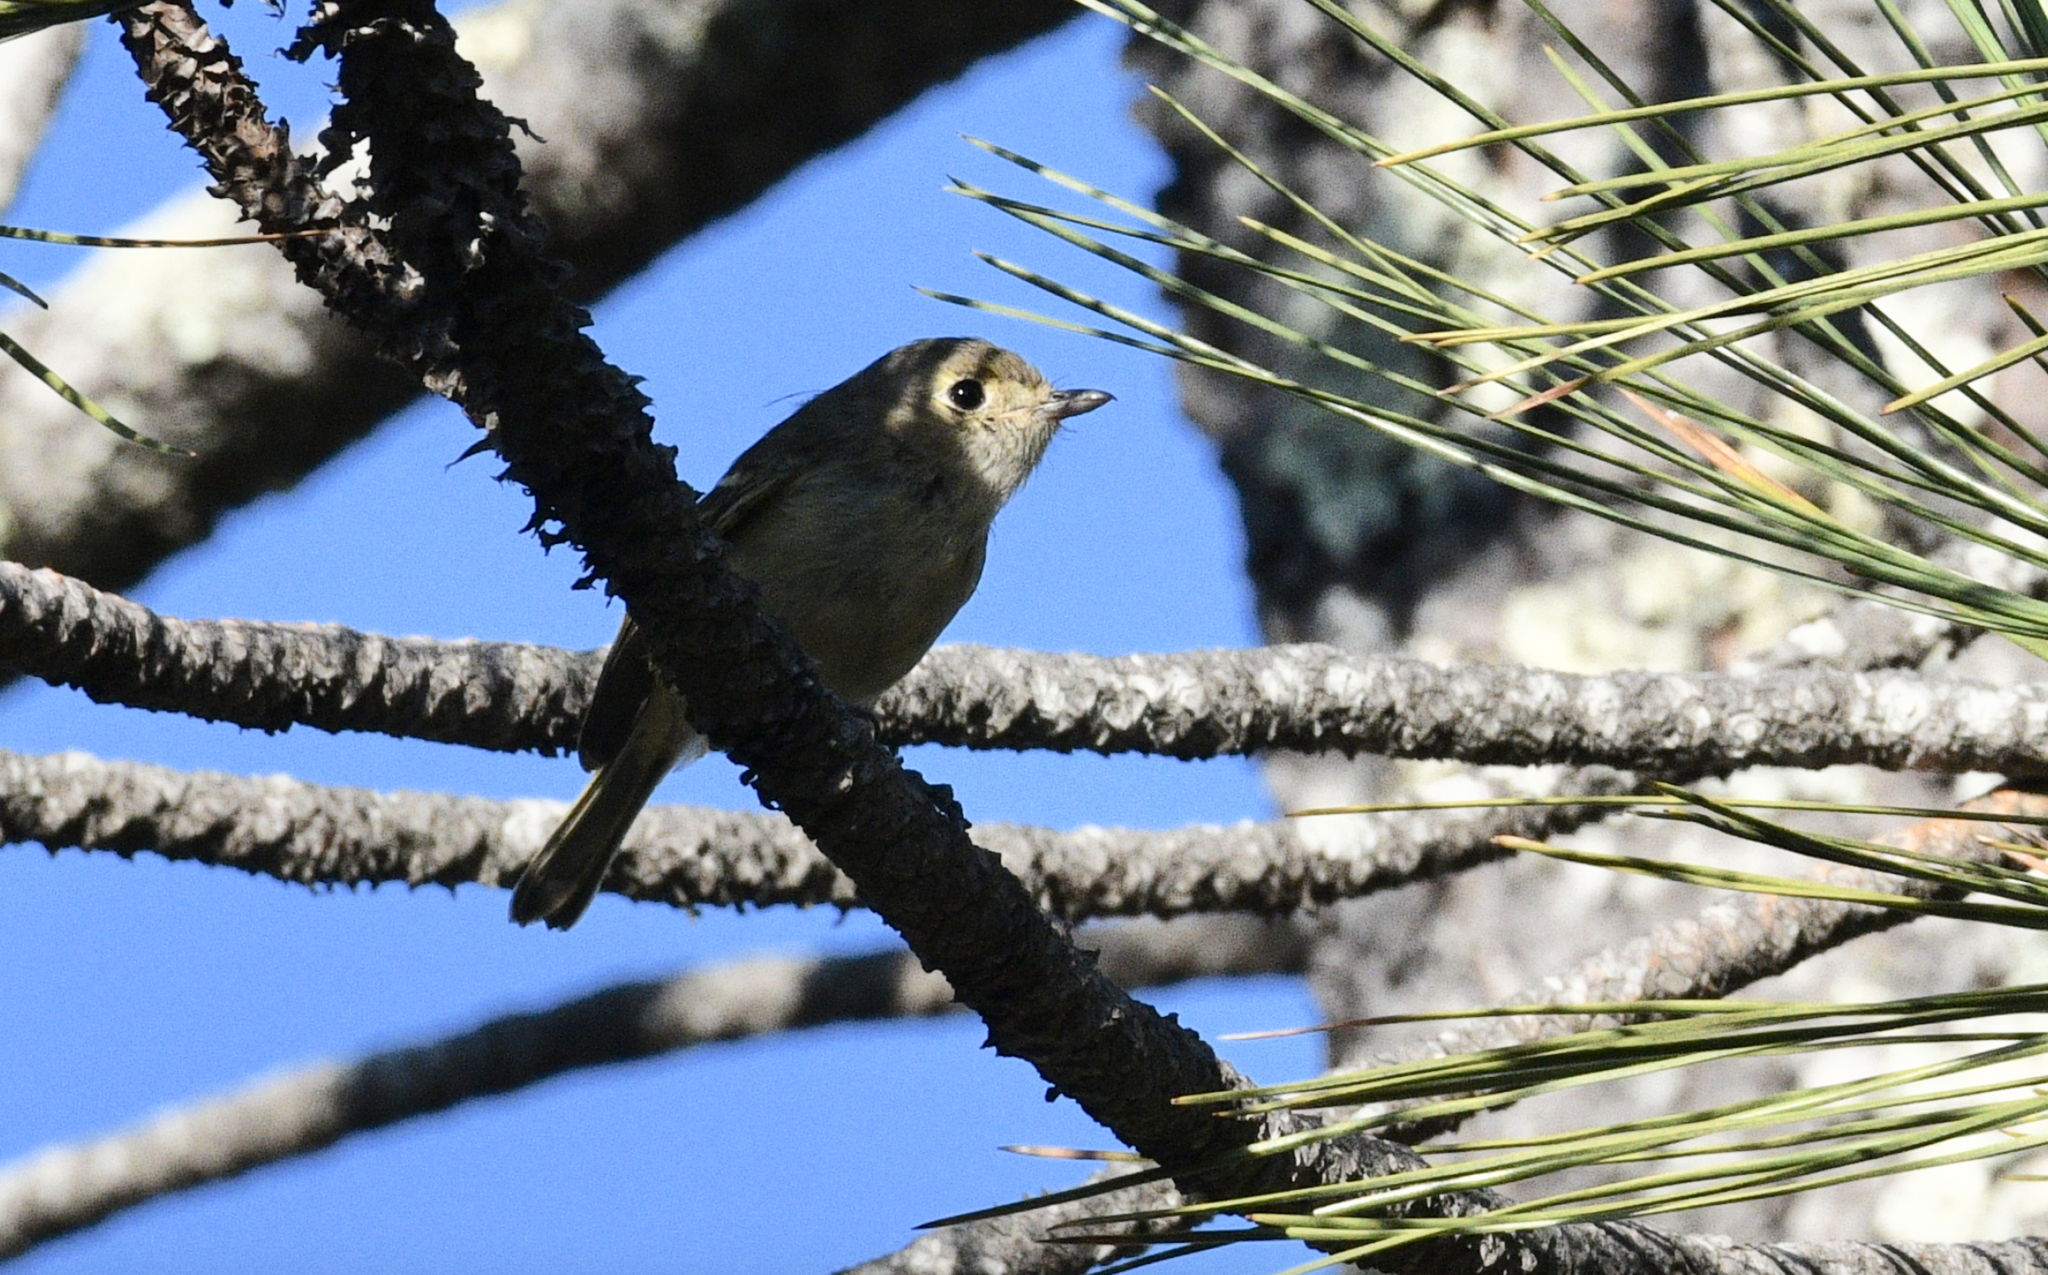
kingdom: Animalia
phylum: Chordata
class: Aves
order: Passeriformes
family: Vireonidae
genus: Vireo
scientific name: Vireo huttoni
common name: Hutton's vireo
